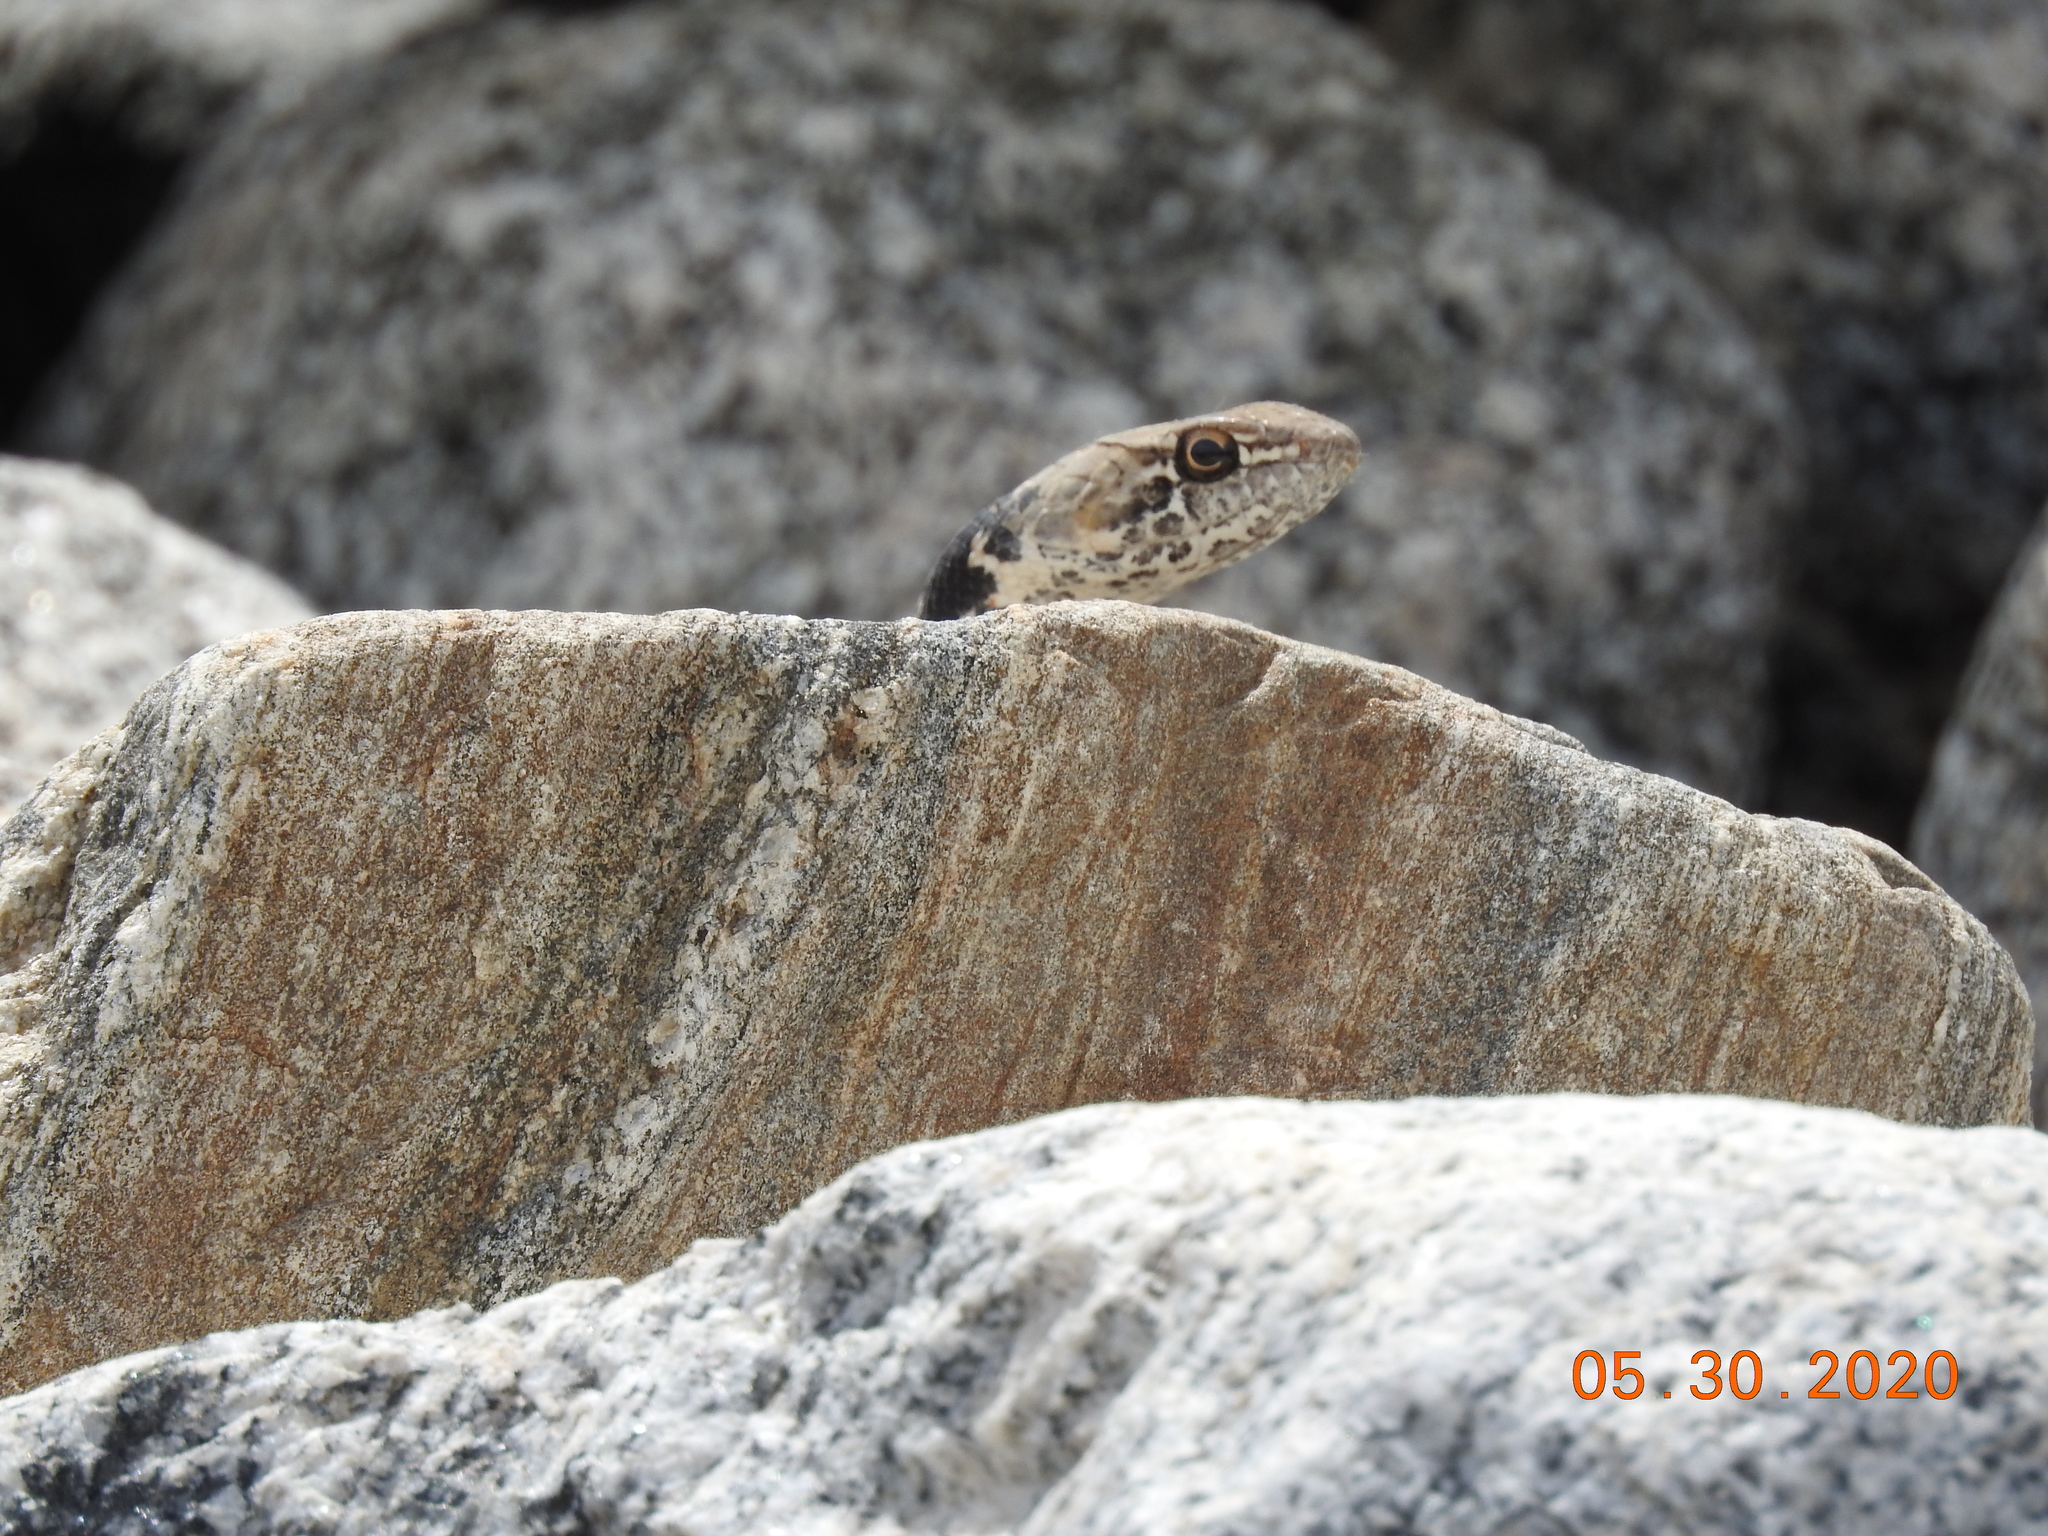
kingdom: Animalia
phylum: Chordata
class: Squamata
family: Colubridae
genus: Masticophis
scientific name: Masticophis flagellum
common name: Coachwhip
